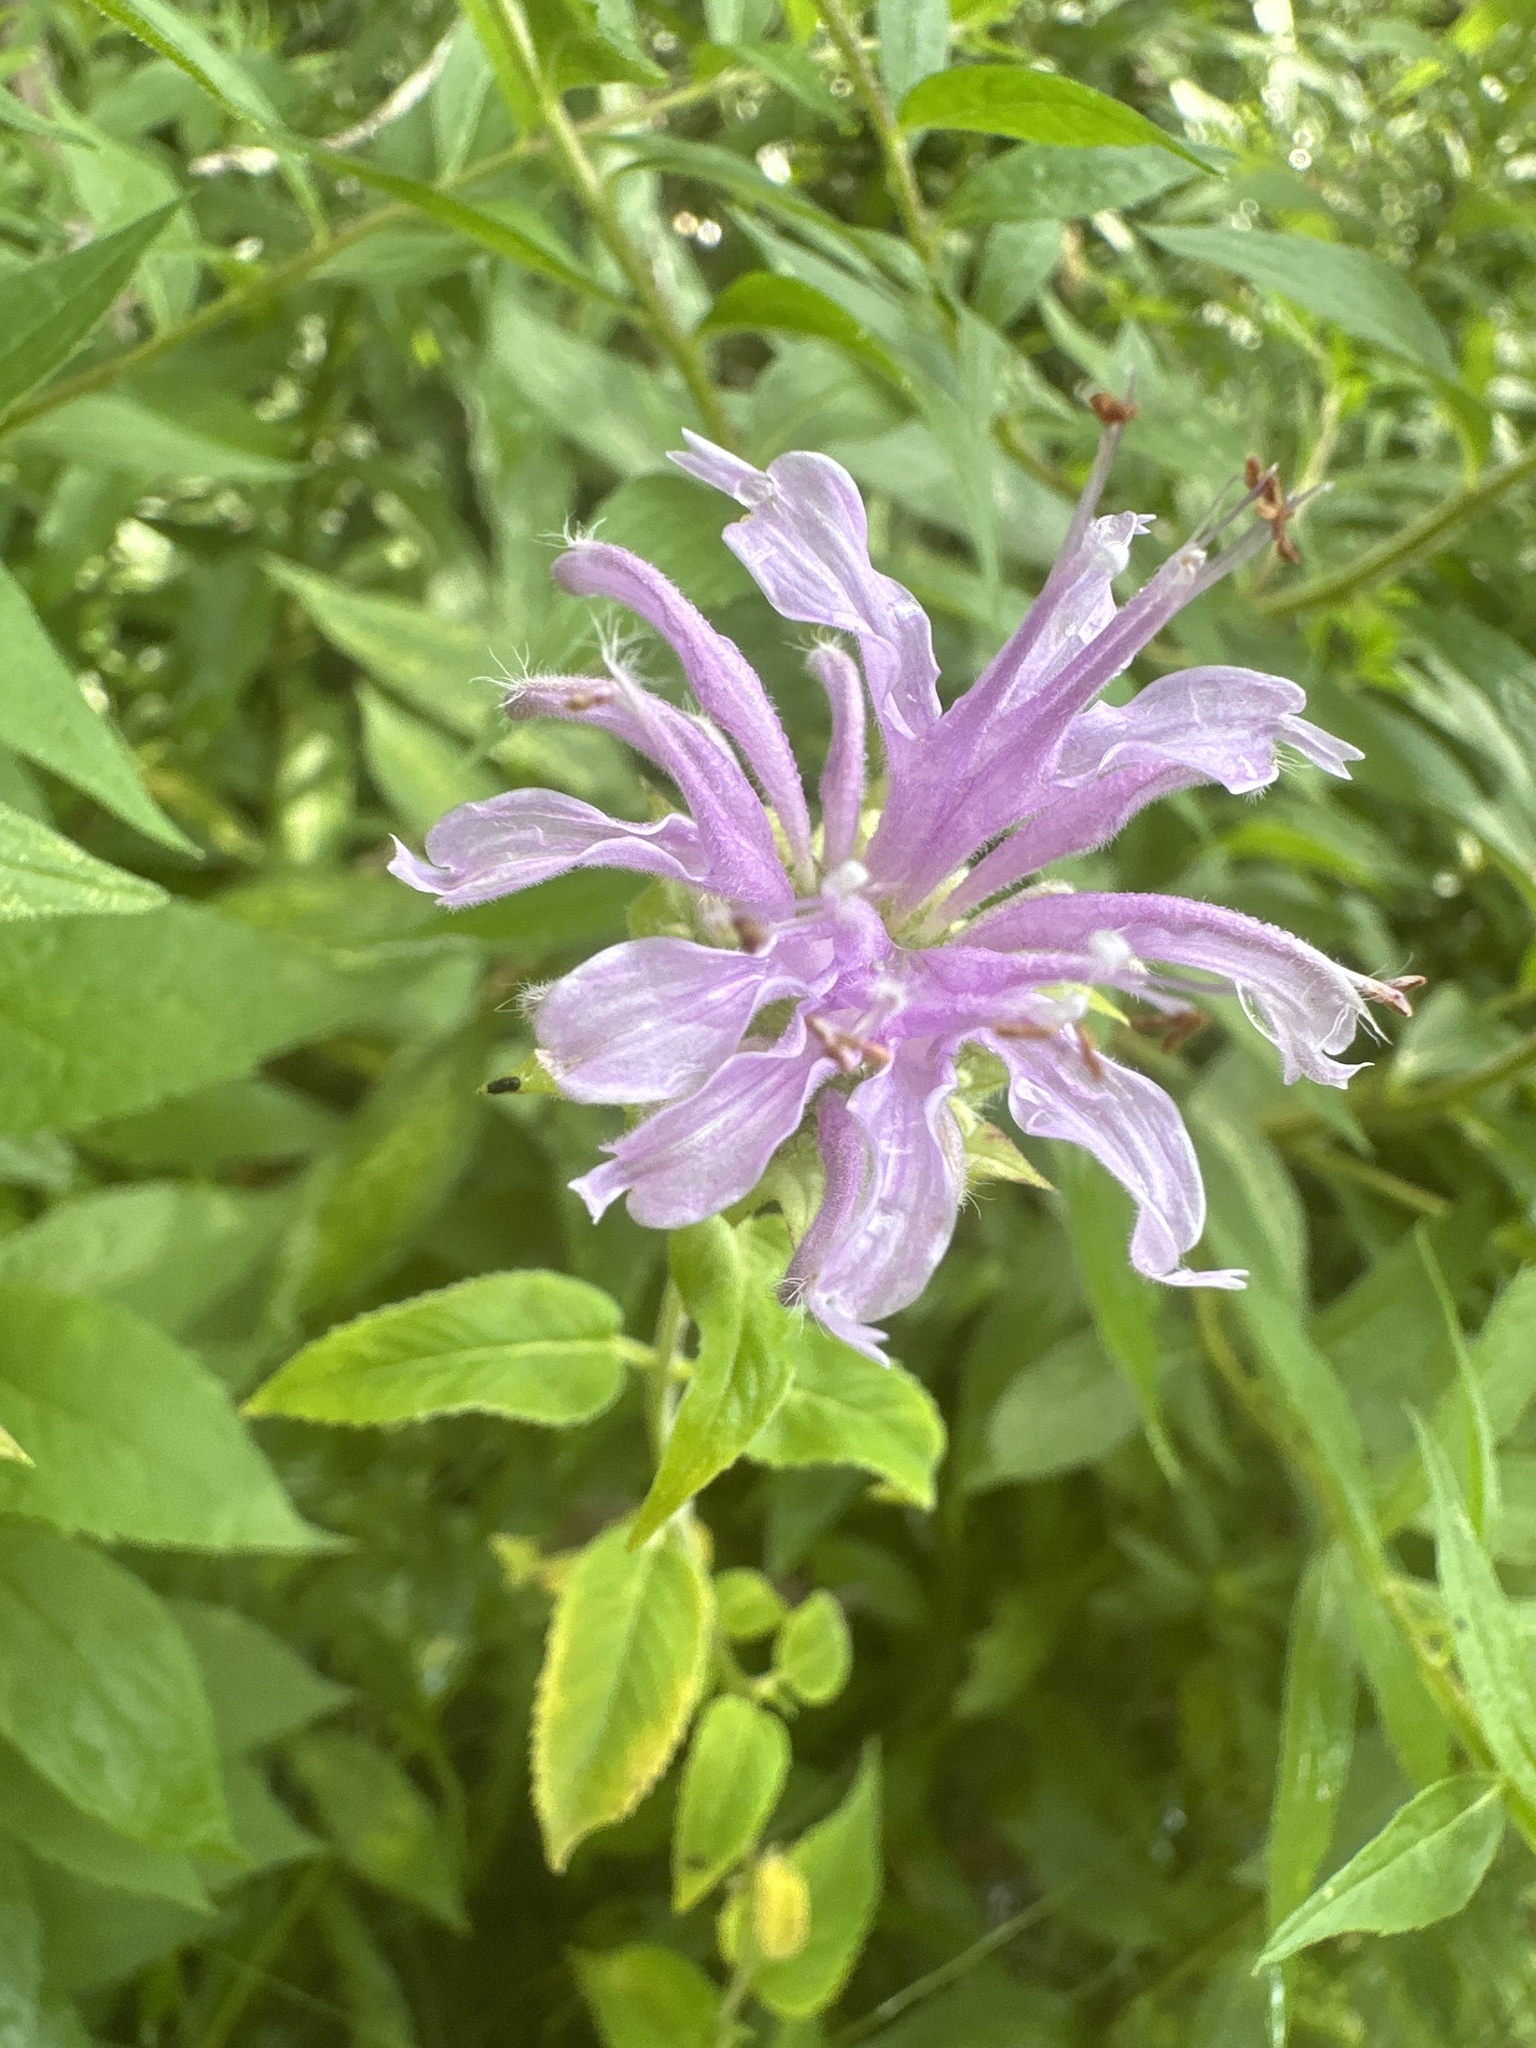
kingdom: Plantae
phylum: Tracheophyta
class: Magnoliopsida
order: Lamiales
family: Lamiaceae
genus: Monarda
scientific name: Monarda fistulosa
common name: Purple beebalm
